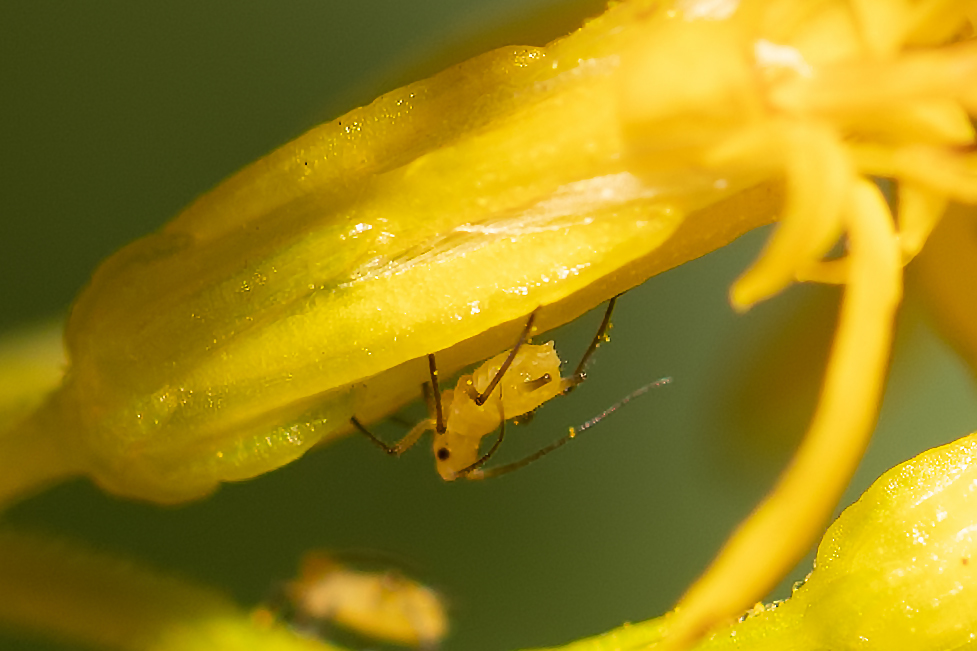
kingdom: Animalia
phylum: Arthropoda
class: Insecta
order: Hemiptera
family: Aphididae
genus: Aphis
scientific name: Aphis nerii
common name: Oleander aphid
